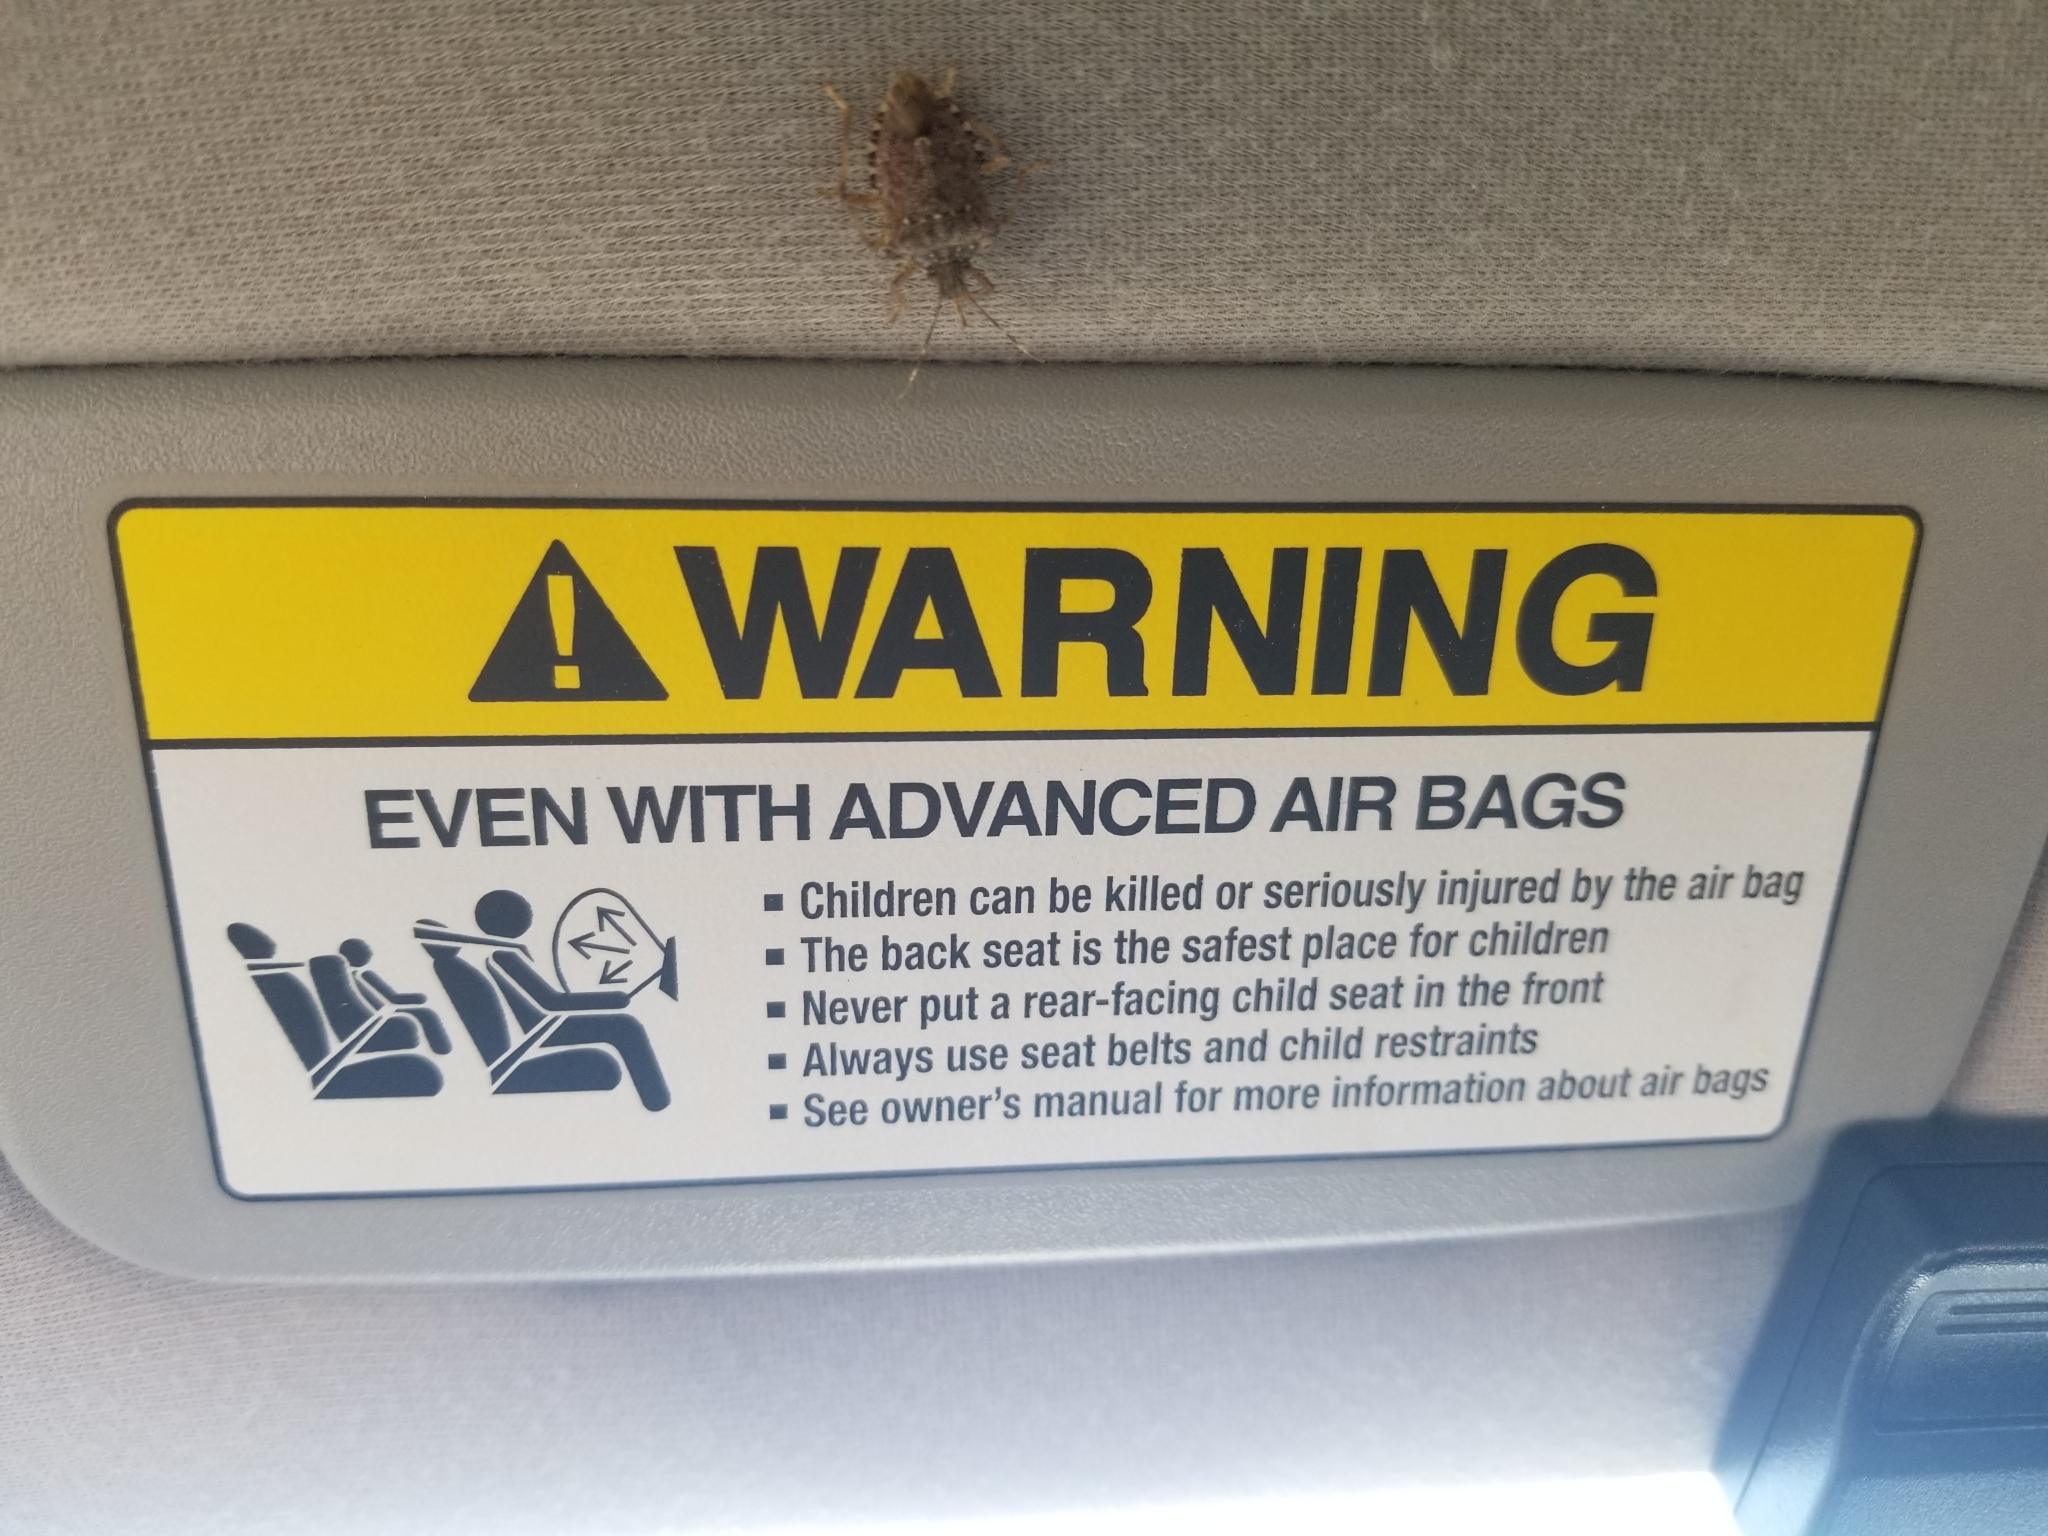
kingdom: Animalia
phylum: Arthropoda
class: Insecta
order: Hemiptera
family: Pentatomidae
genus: Halyomorpha
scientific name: Halyomorpha halys
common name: Brown marmorated stink bug
